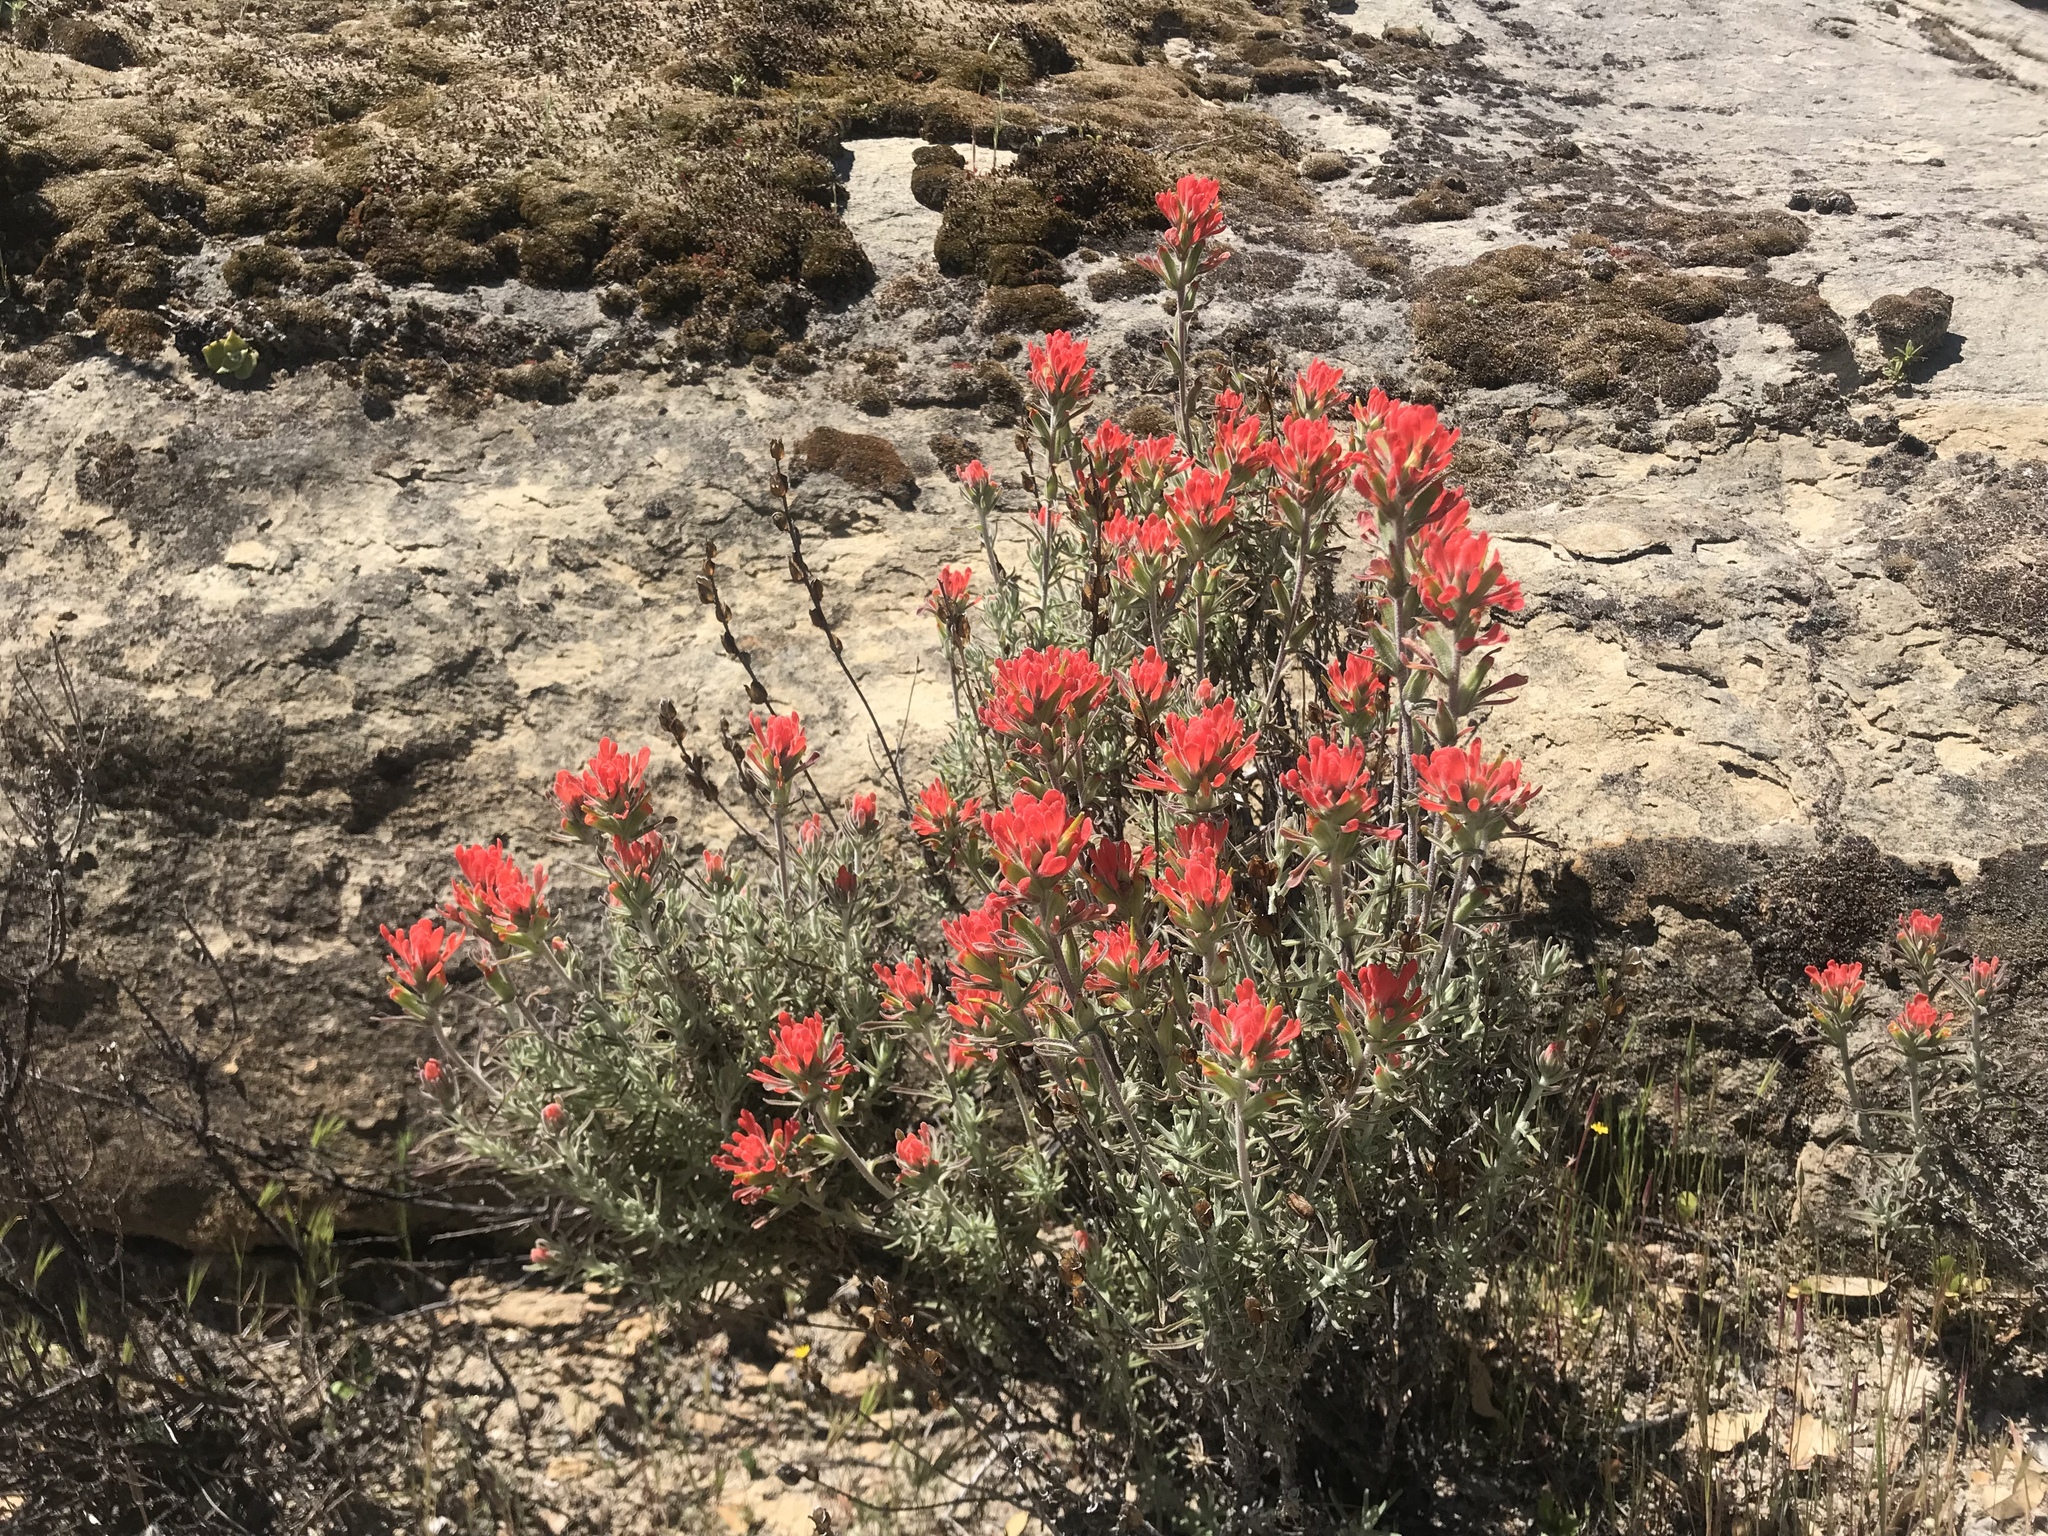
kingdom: Plantae
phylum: Tracheophyta
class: Magnoliopsida
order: Lamiales
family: Orobanchaceae
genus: Castilleja
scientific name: Castilleja foliolosa
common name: Woolly indian paintbrush
